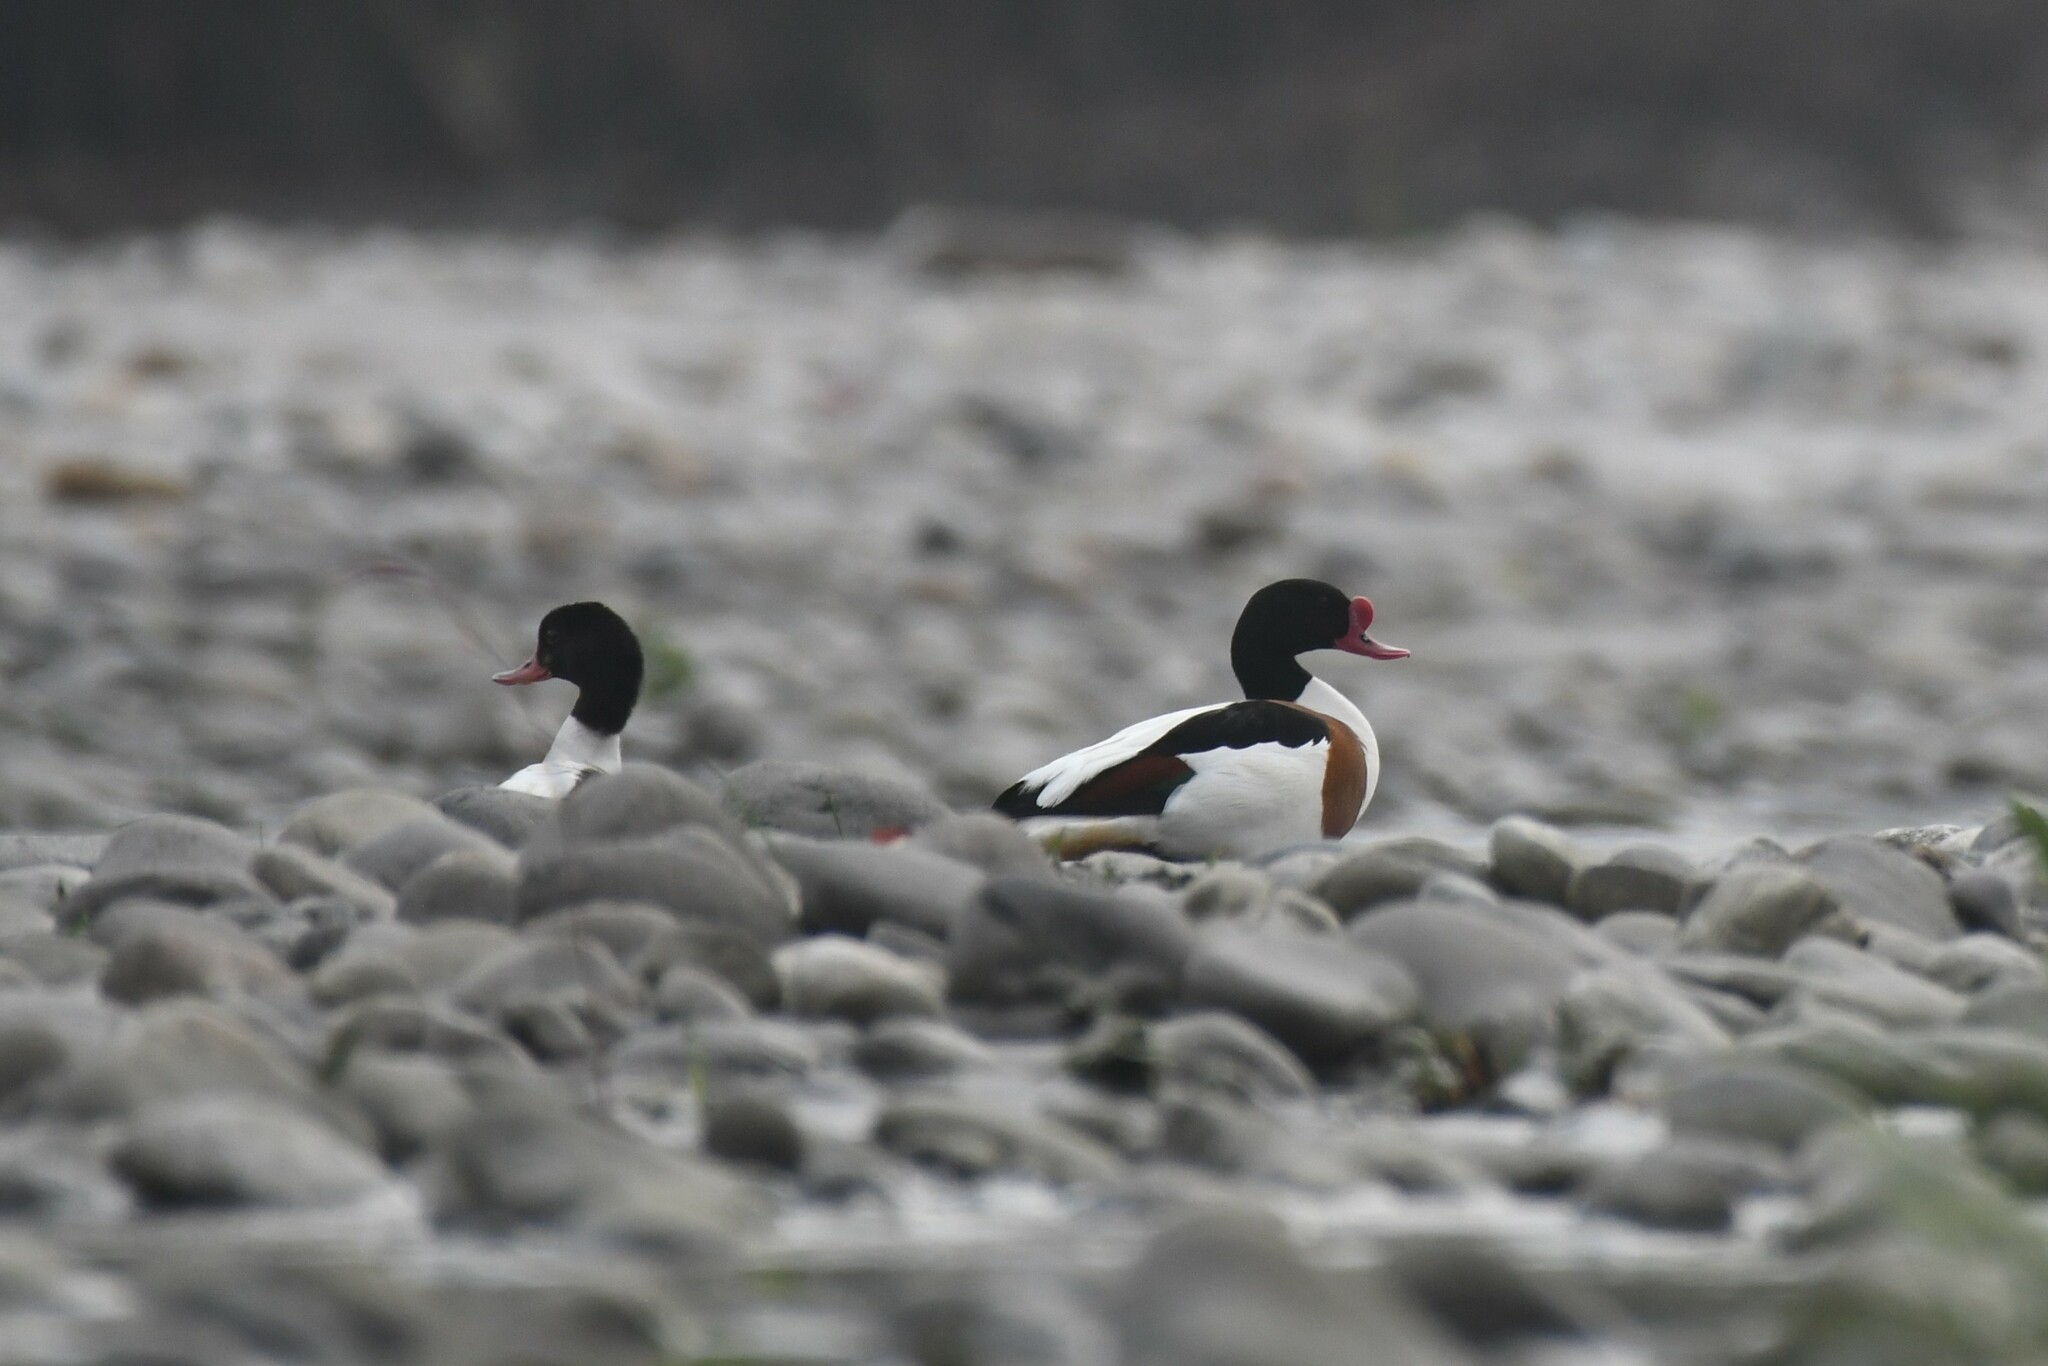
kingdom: Animalia
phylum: Chordata
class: Aves
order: Anseriformes
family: Anatidae
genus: Tadorna
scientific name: Tadorna tadorna
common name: Common shelduck
